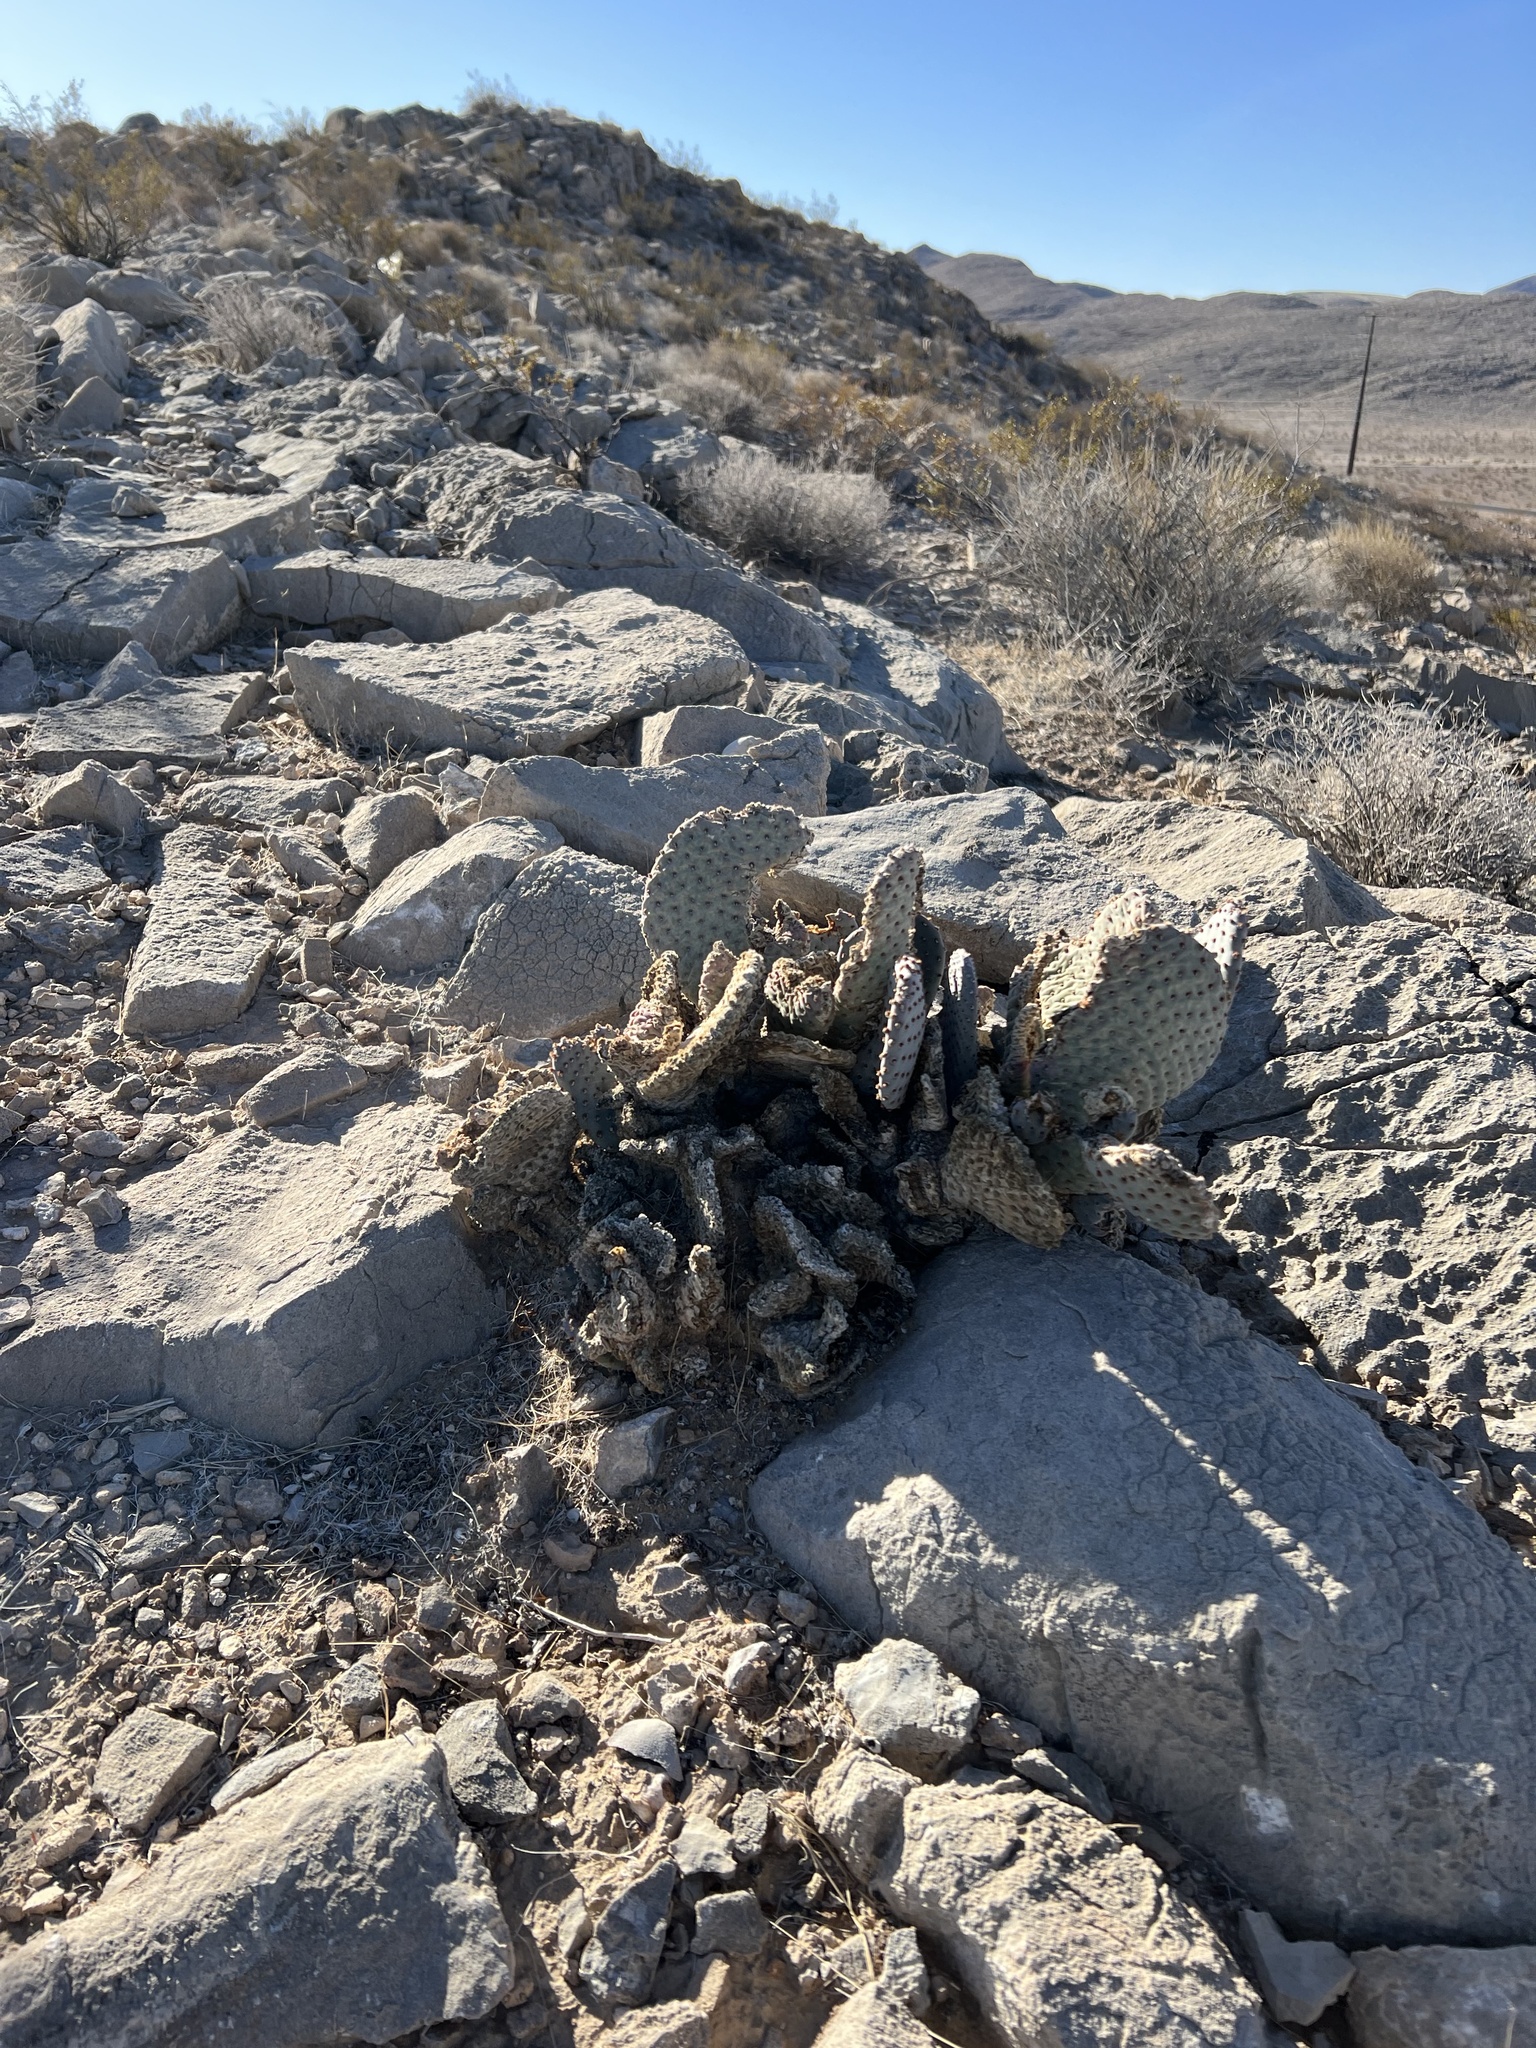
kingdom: Plantae
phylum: Tracheophyta
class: Magnoliopsida
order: Caryophyllales
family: Cactaceae
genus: Opuntia
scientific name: Opuntia basilaris
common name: Beavertail prickly-pear
